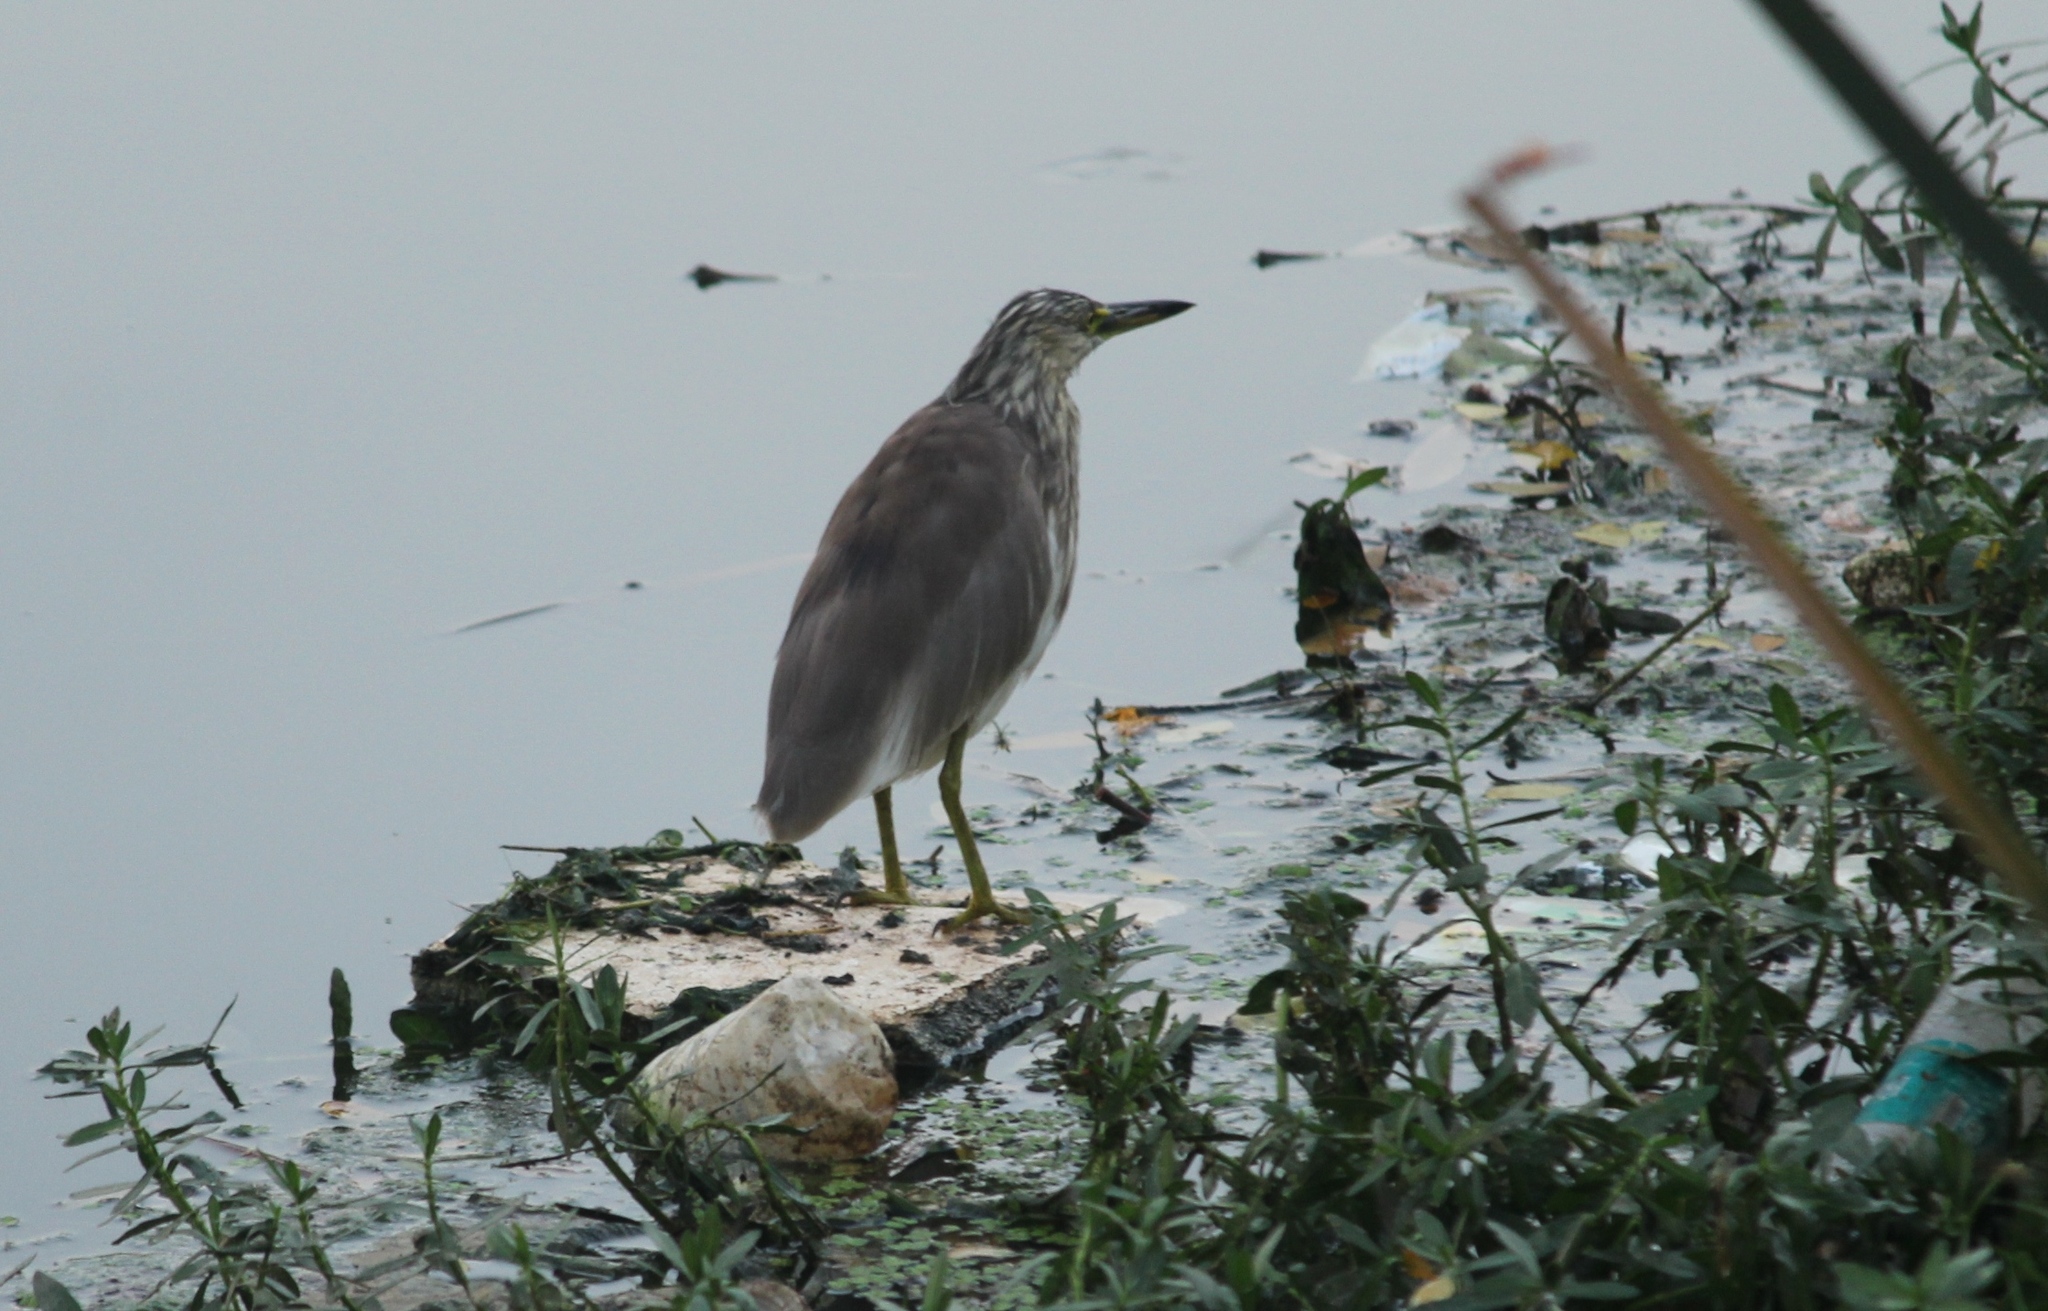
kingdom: Animalia
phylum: Chordata
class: Aves
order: Pelecaniformes
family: Ardeidae
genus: Ardeola
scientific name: Ardeola grayii
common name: Indian pond heron
